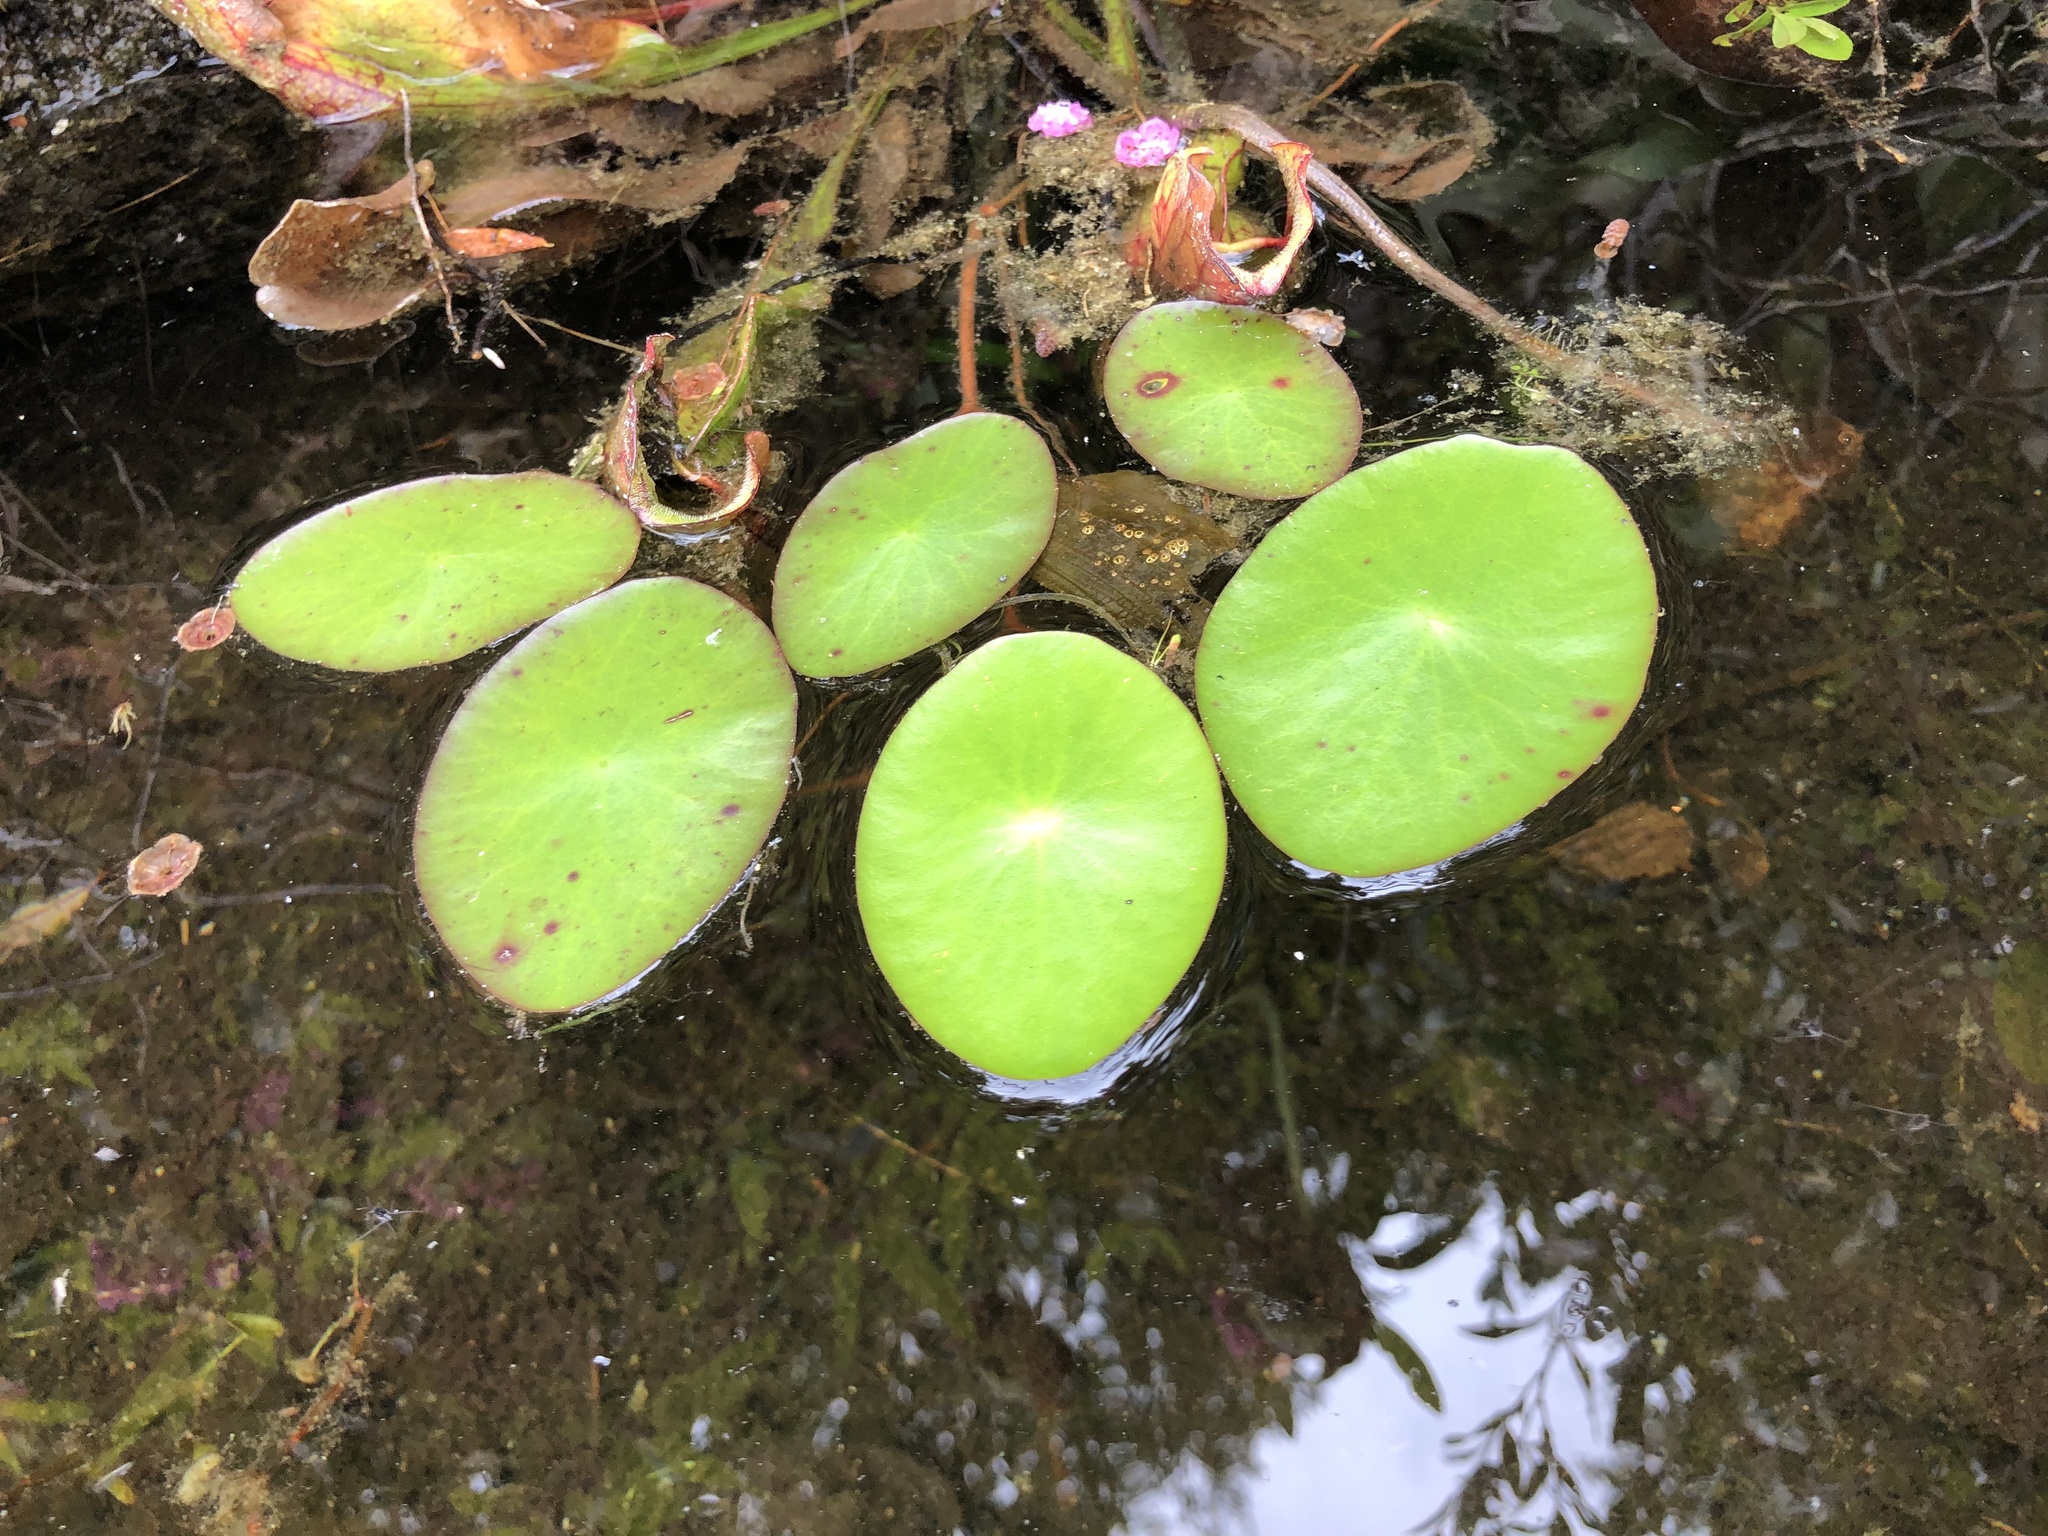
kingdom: Plantae
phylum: Tracheophyta
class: Magnoliopsida
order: Nymphaeales
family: Cabombaceae
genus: Brasenia
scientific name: Brasenia schreberi
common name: Water-shield
